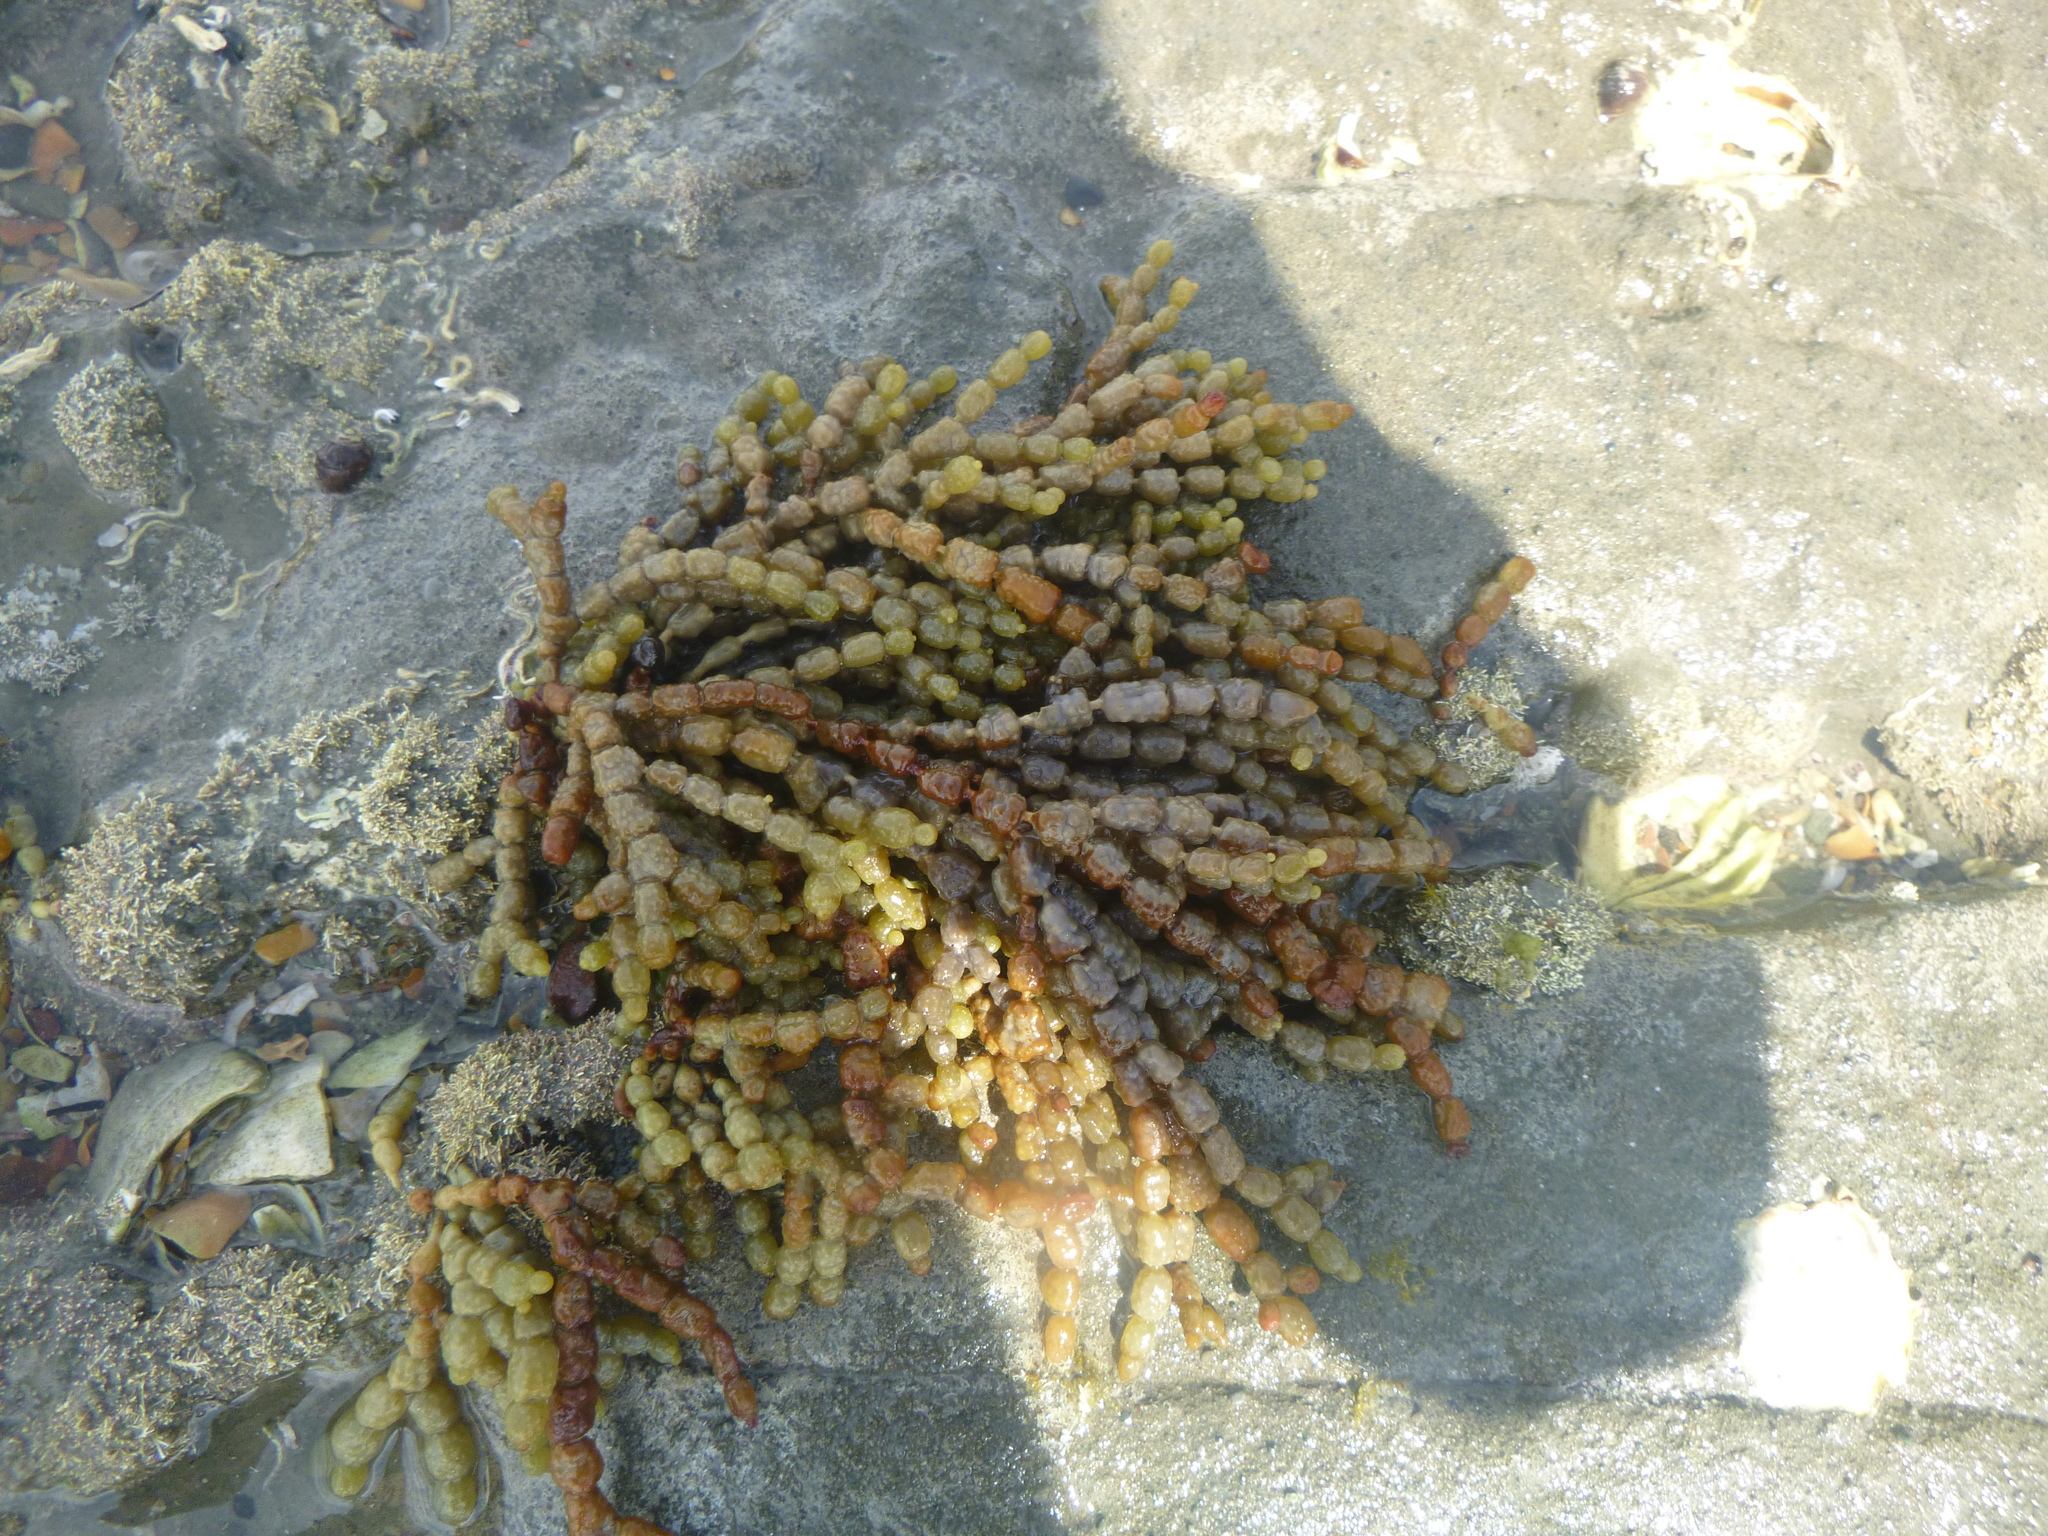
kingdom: Chromista
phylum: Ochrophyta
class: Phaeophyceae
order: Fucales
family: Hormosiraceae
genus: Hormosira
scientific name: Hormosira banksii
